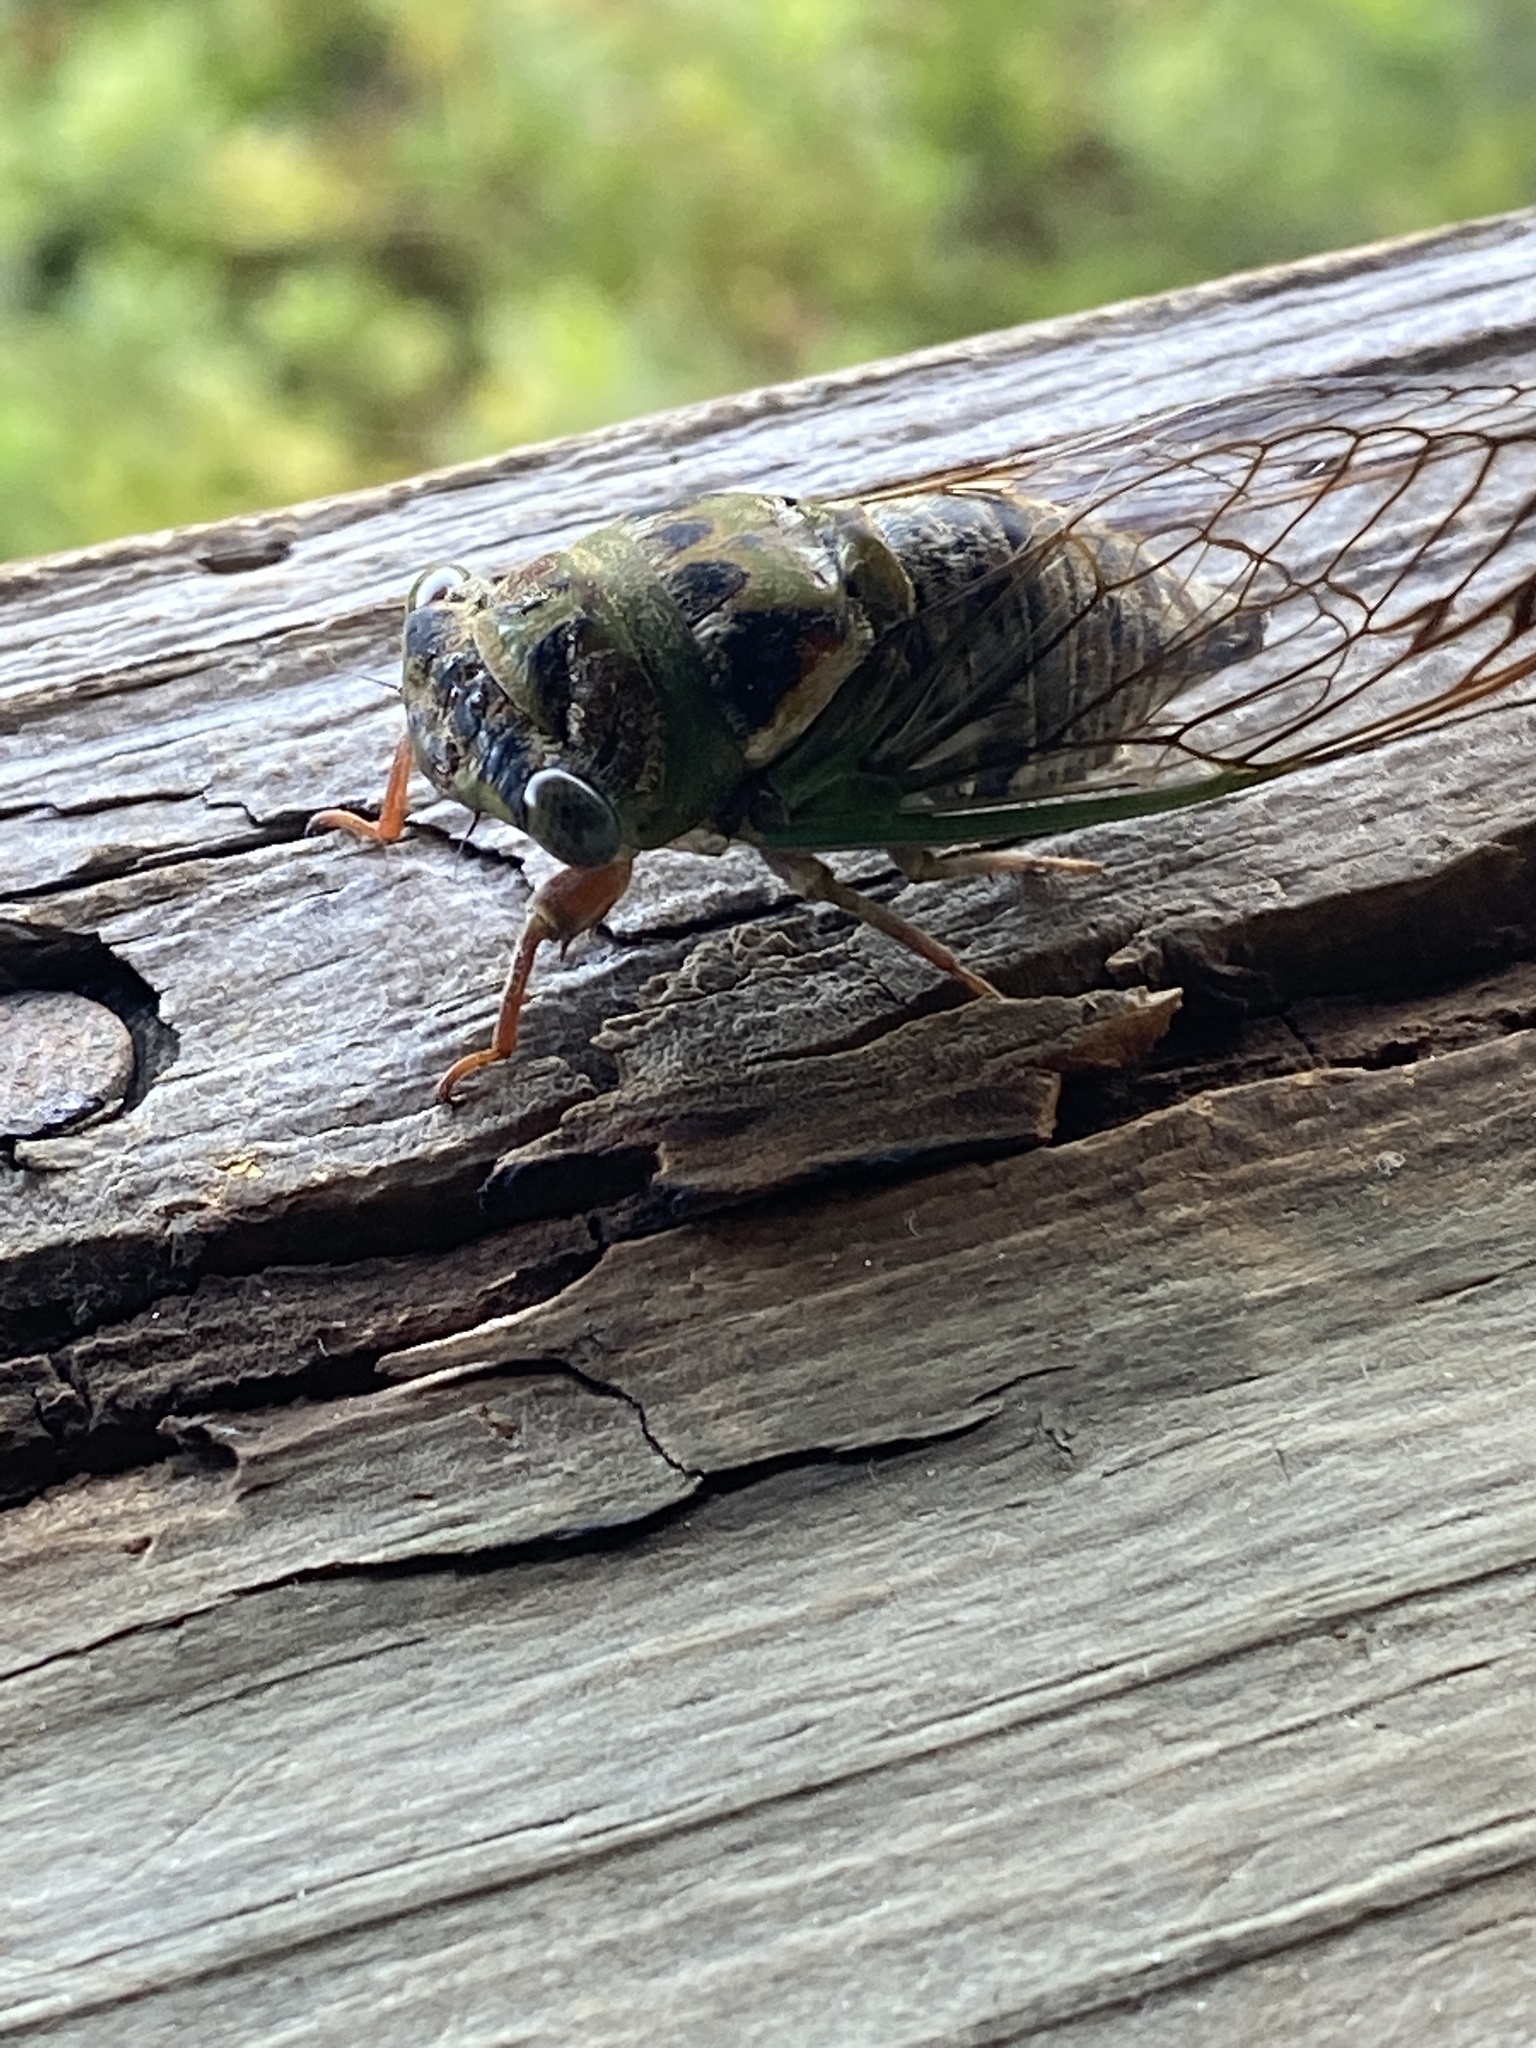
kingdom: Animalia
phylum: Arthropoda
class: Insecta
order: Hemiptera
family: Cicadidae
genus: Neotibicen
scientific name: Neotibicen davisi
